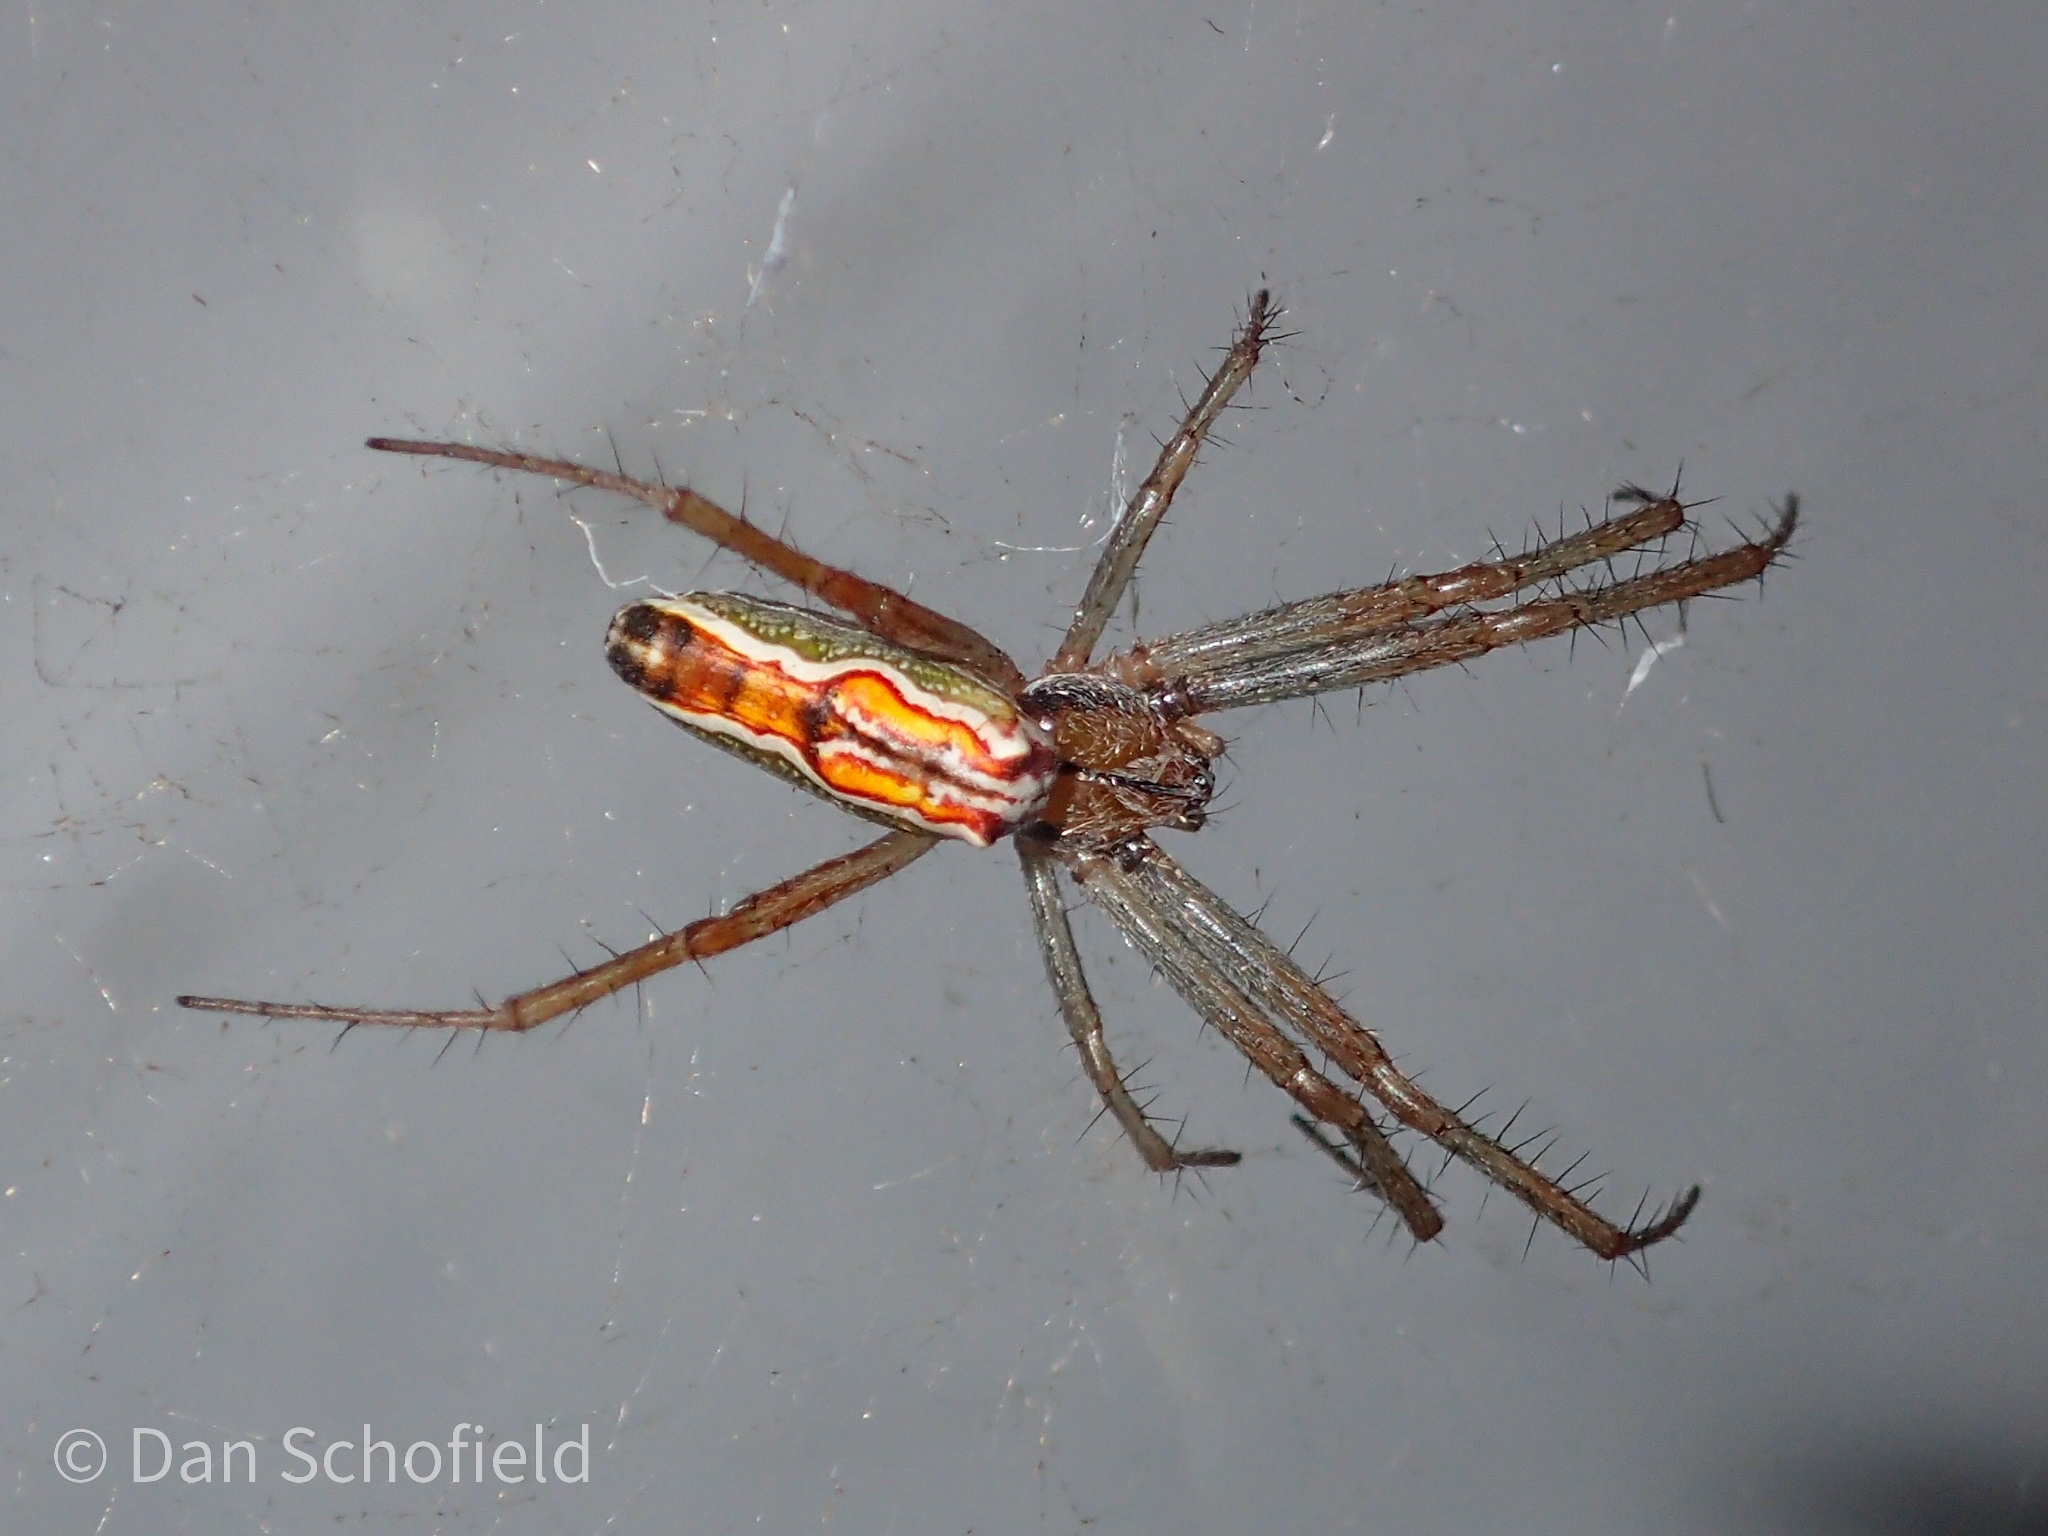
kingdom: Animalia
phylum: Arthropoda
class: Arachnida
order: Araneae
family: Araneidae
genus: Mecynogea
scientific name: Mecynogea lemniscata
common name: Orb weavers
